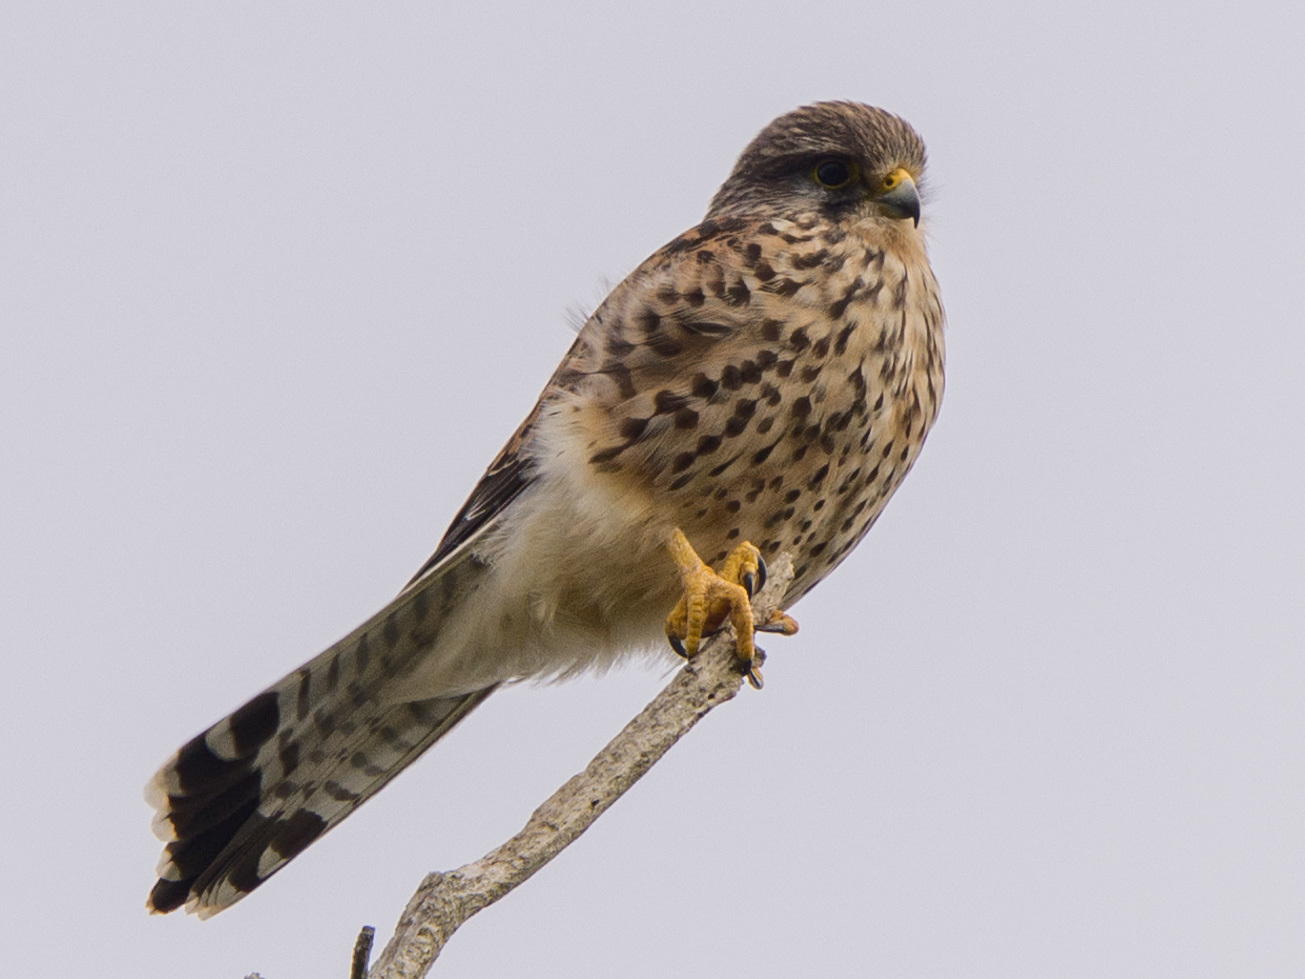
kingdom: Animalia
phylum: Chordata
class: Aves
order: Falconiformes
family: Falconidae
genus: Falco
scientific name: Falco tinnunculus
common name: Common kestrel
